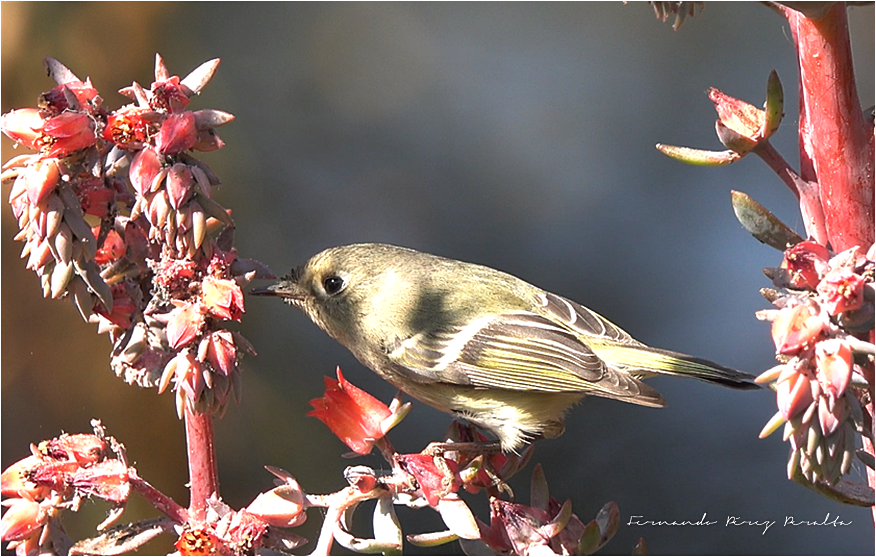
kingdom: Animalia
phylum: Chordata
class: Aves
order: Passeriformes
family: Regulidae
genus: Regulus
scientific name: Regulus calendula
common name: Ruby-crowned kinglet
